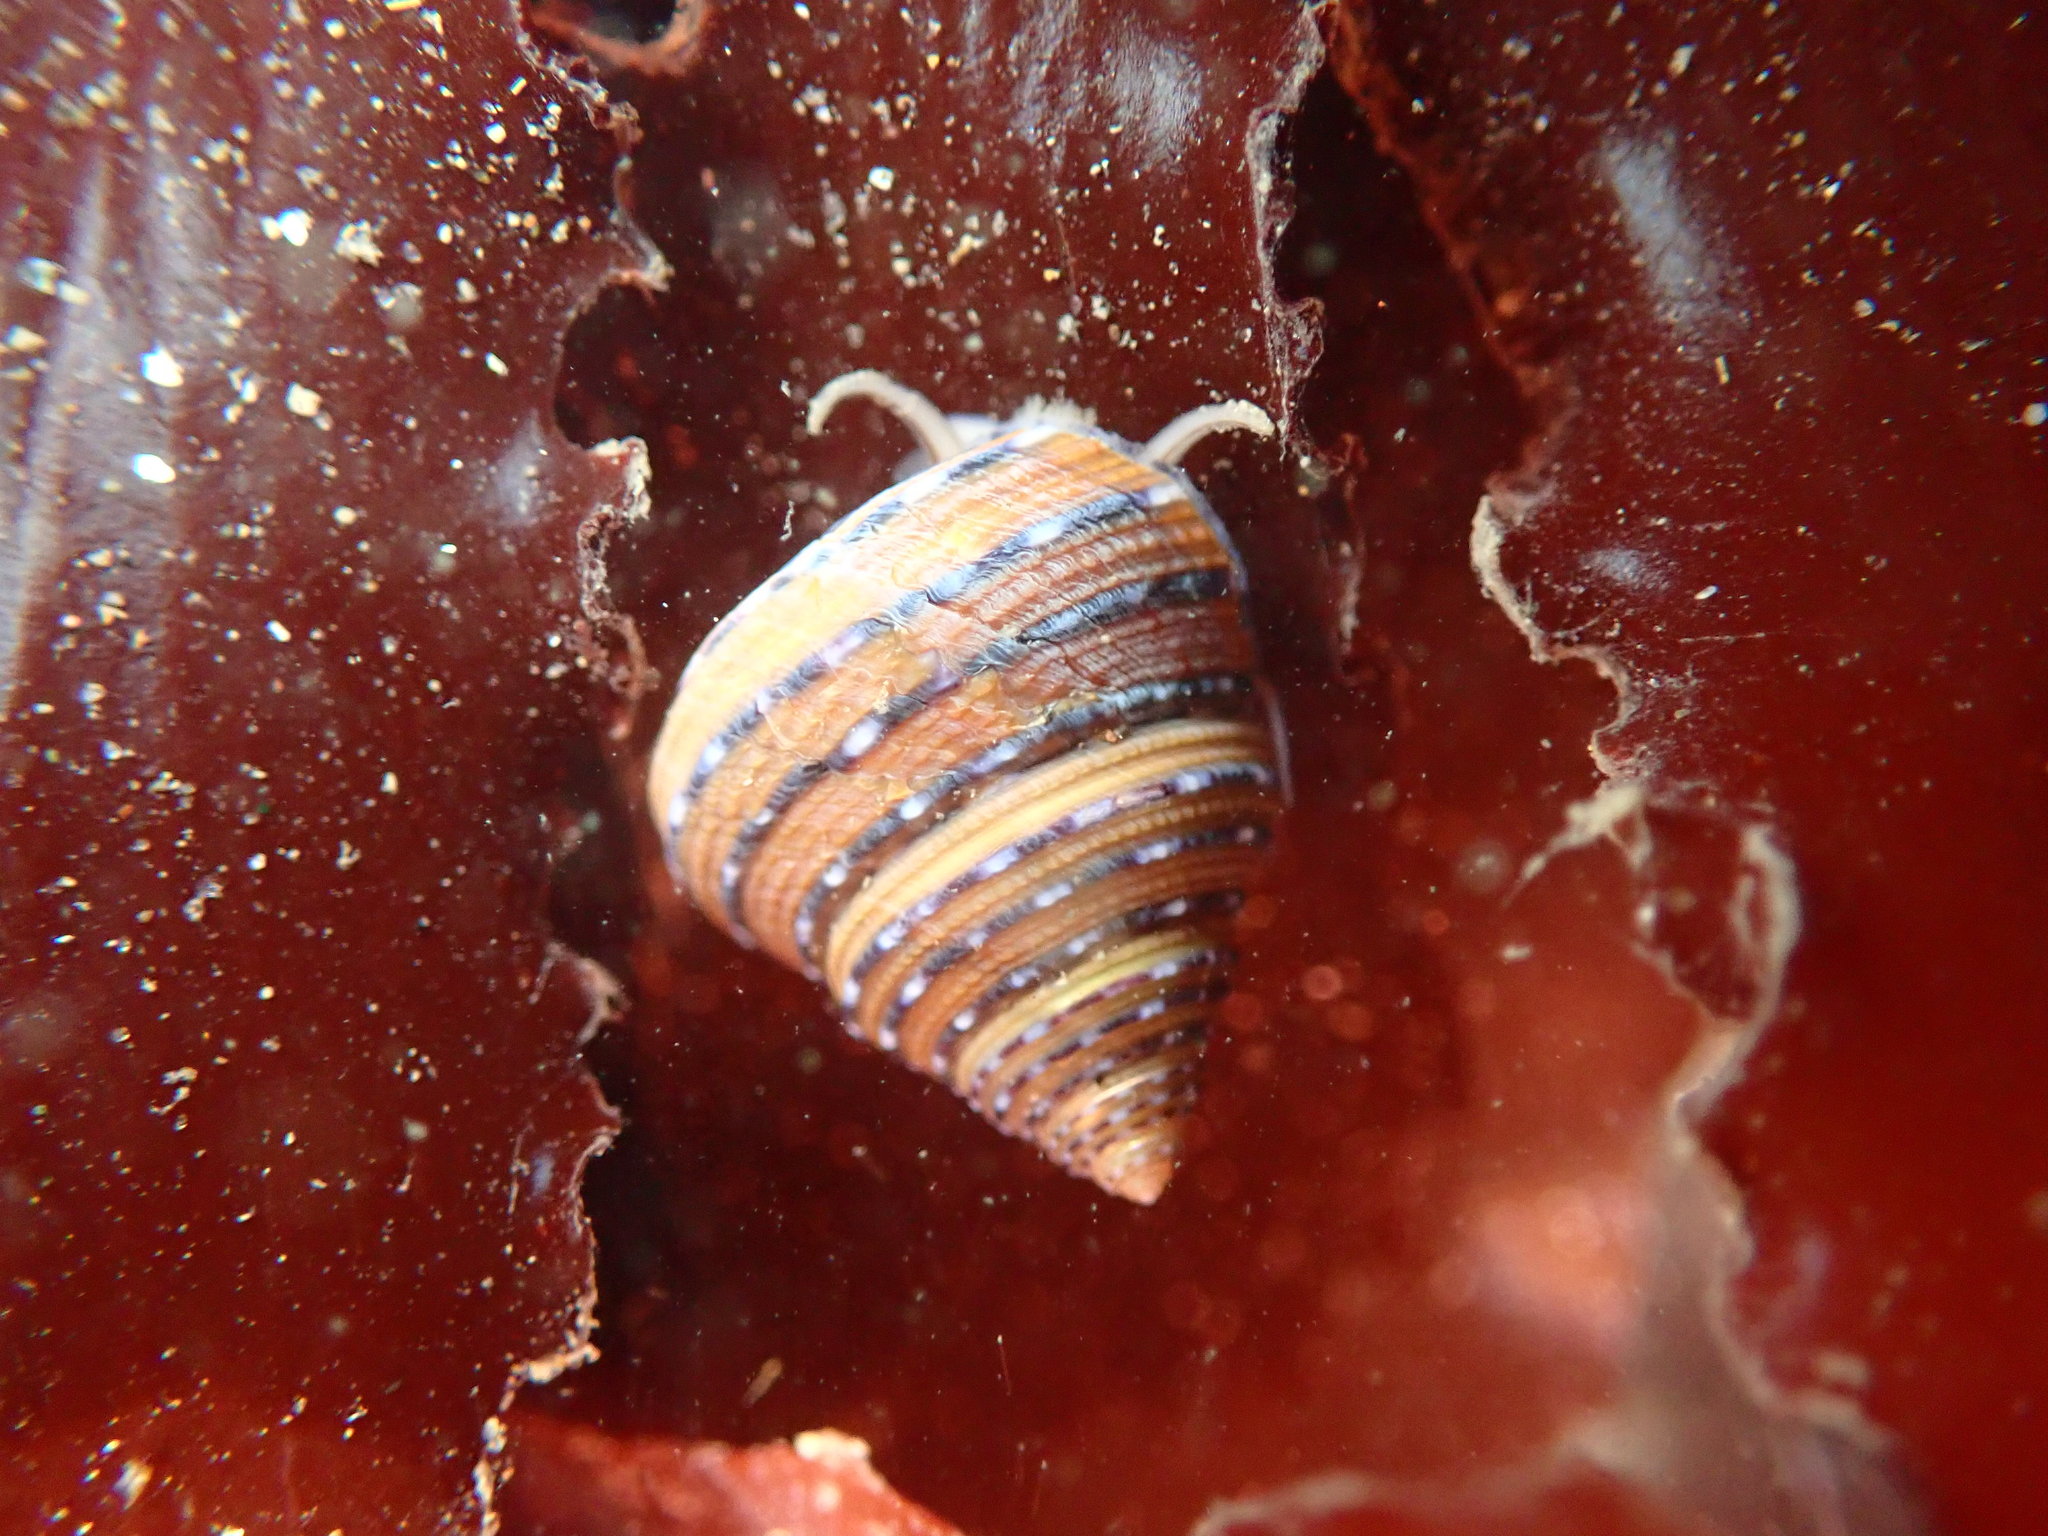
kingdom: Animalia
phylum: Mollusca
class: Gastropoda
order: Trochida
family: Calliostomatidae
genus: Calliostoma
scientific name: Calliostoma tricolor
